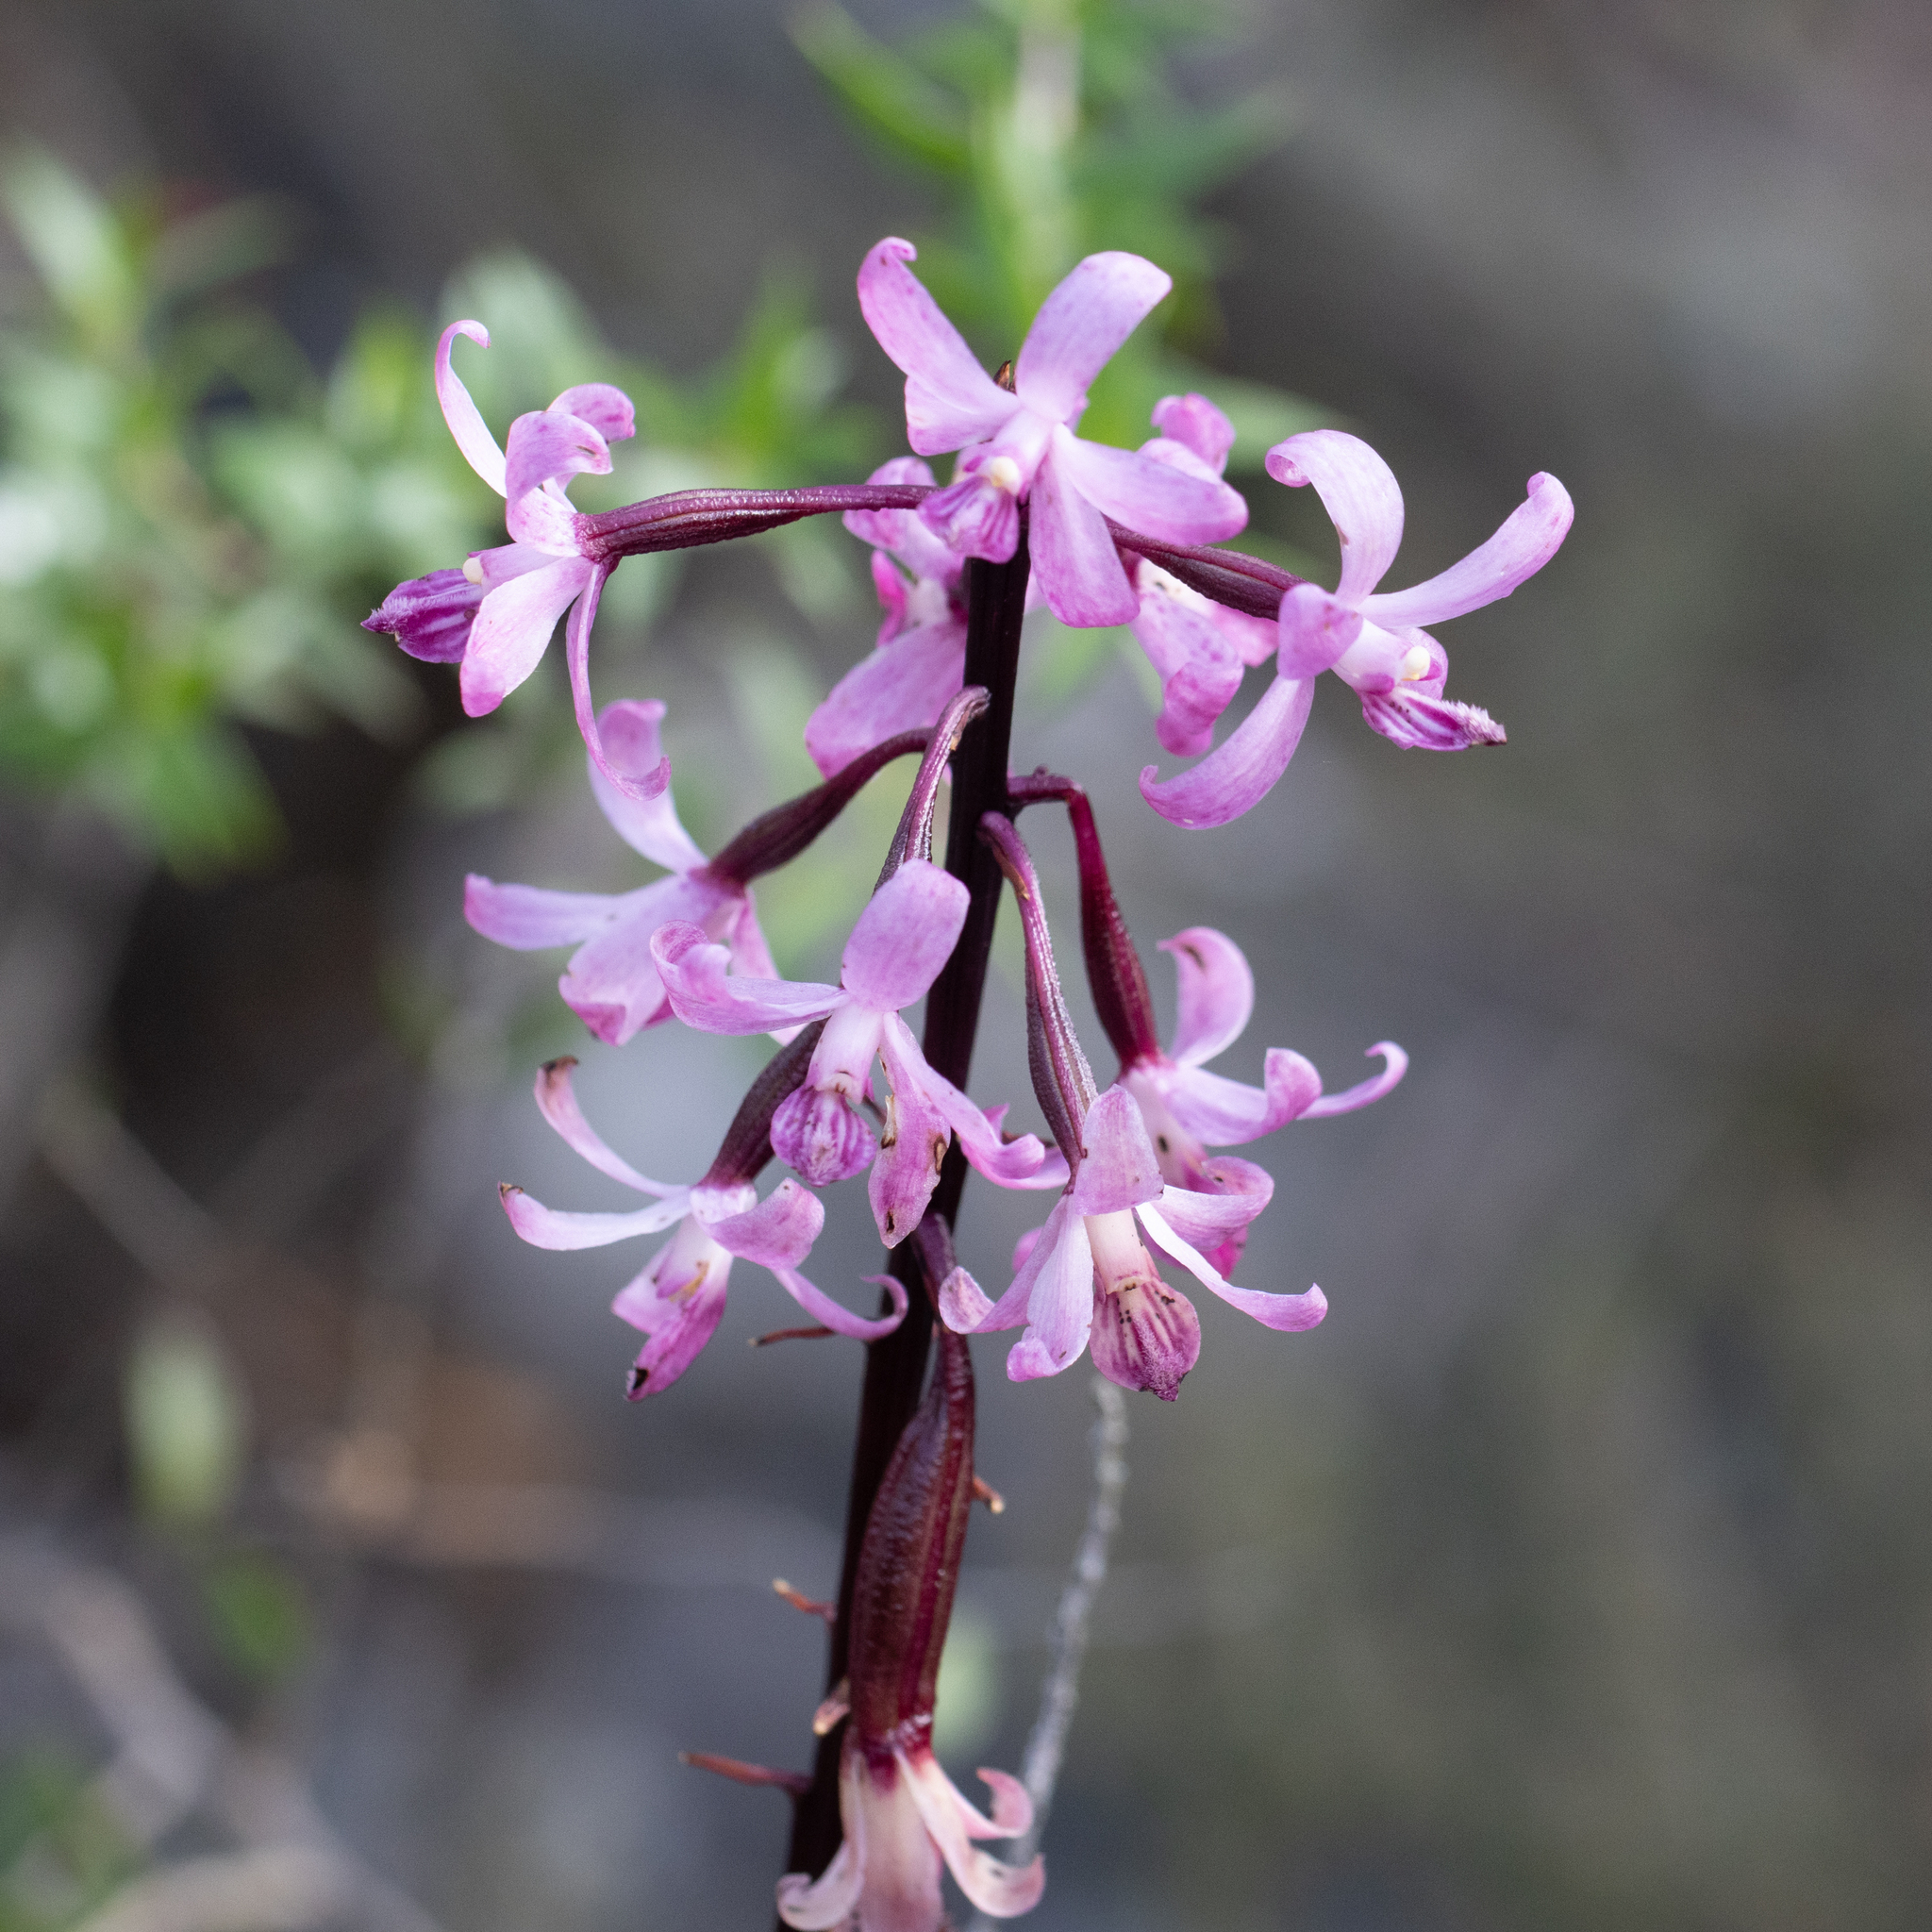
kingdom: Plantae
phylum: Tracheophyta
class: Liliopsida
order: Asparagales
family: Orchidaceae
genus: Dipodium
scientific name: Dipodium roseum
